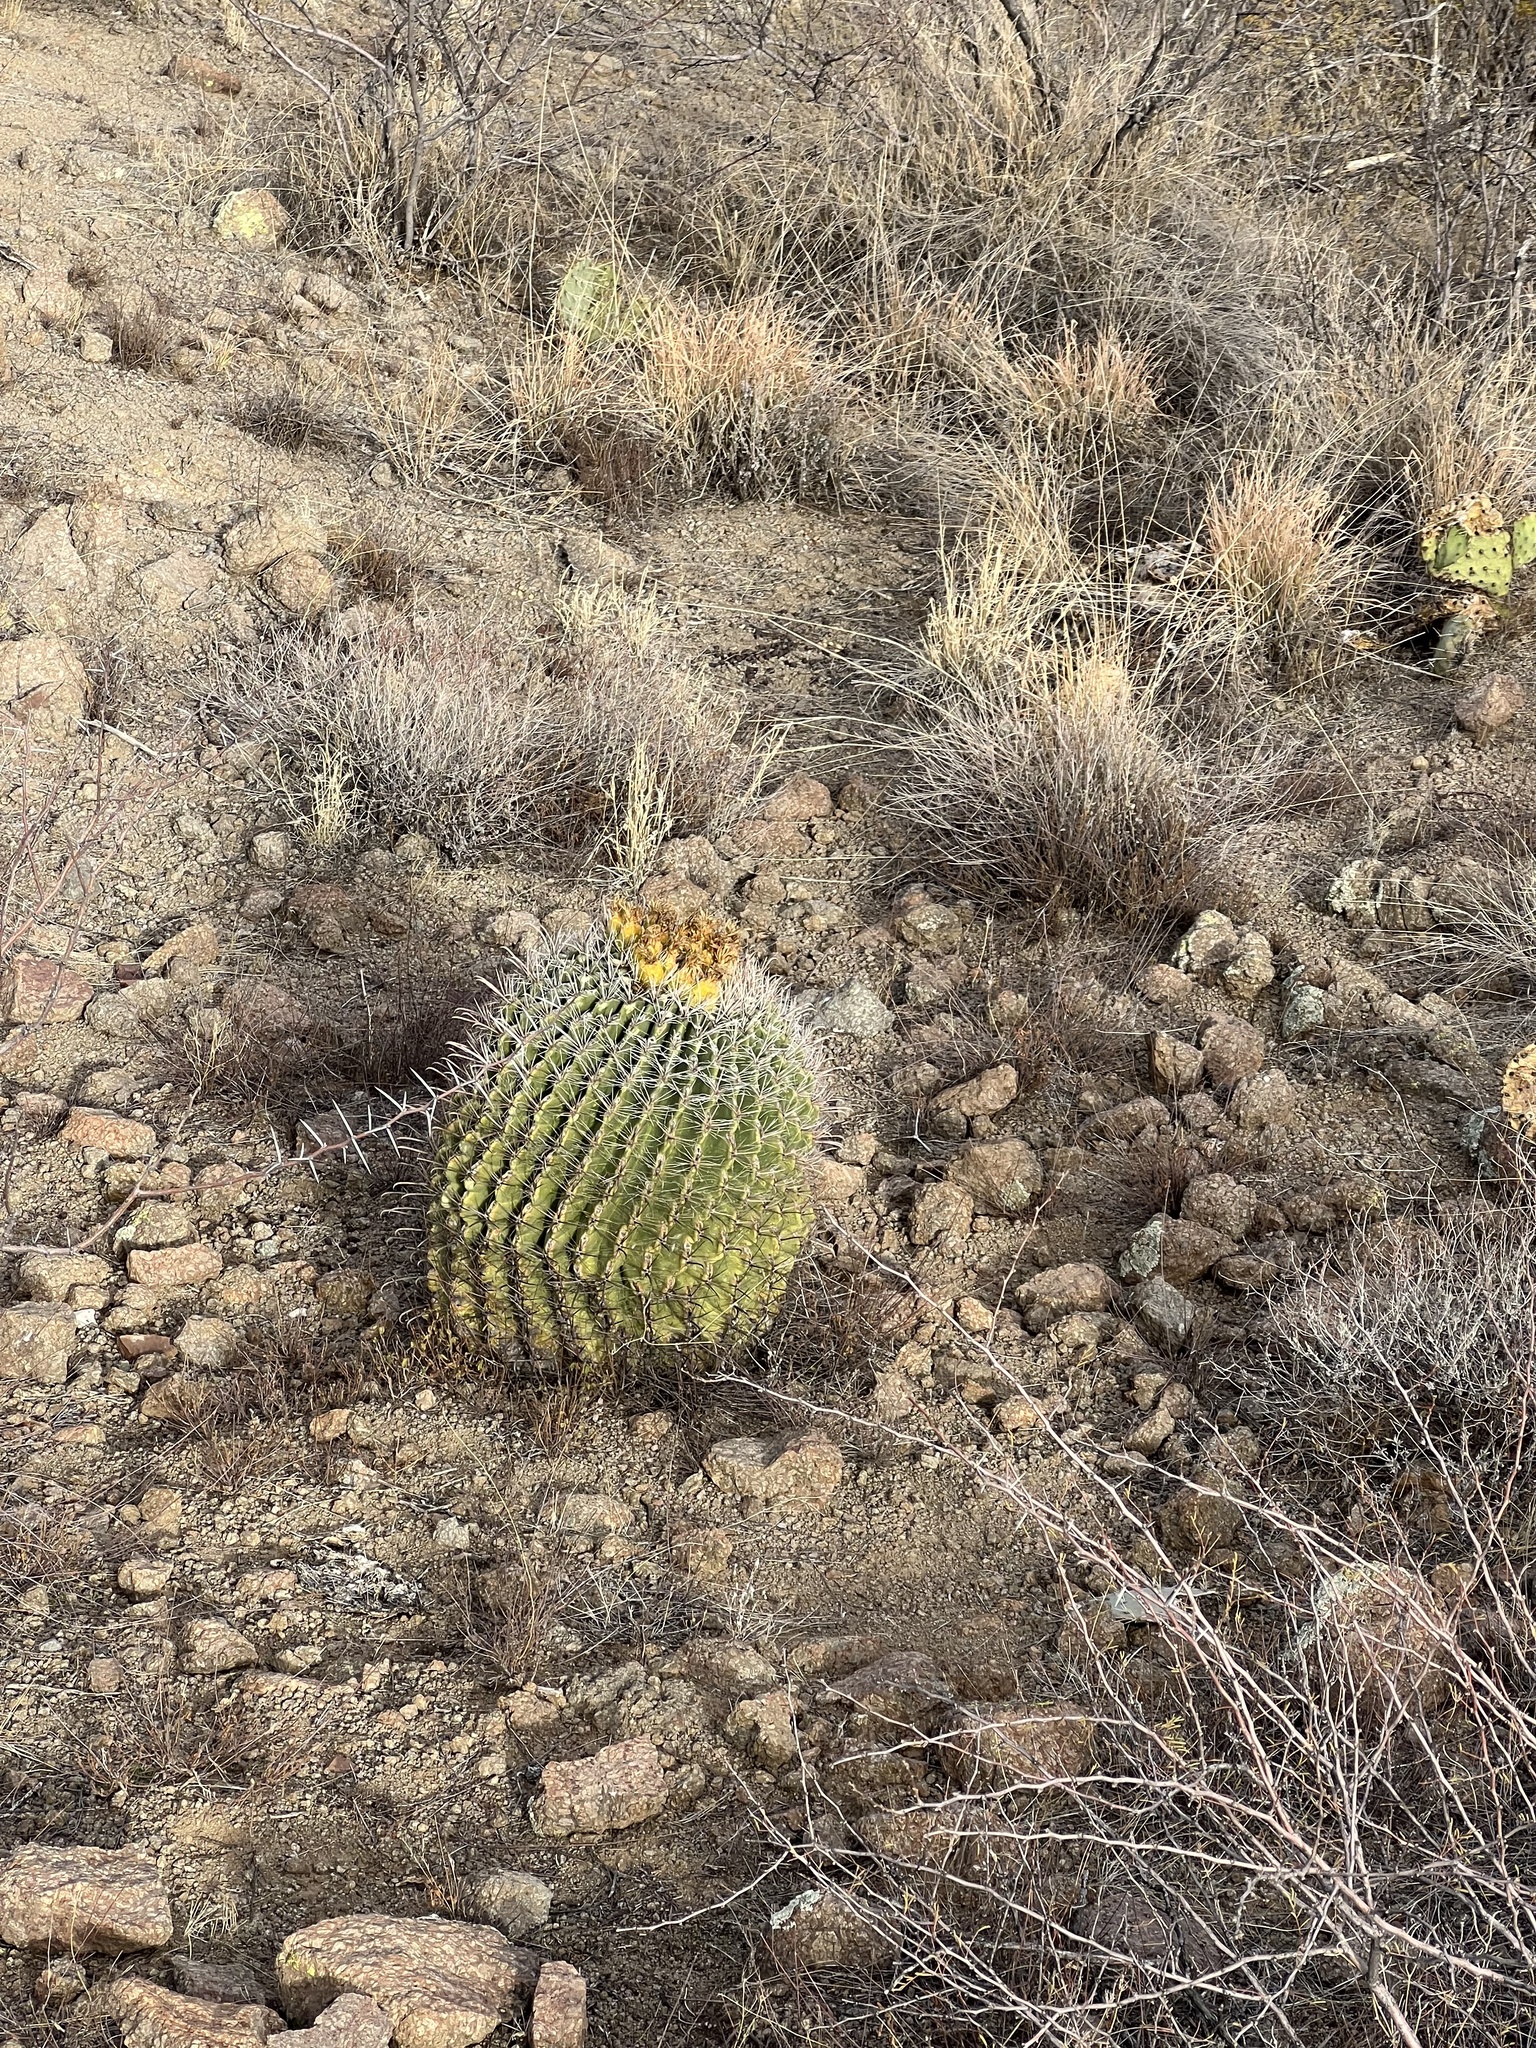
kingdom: Plantae
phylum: Tracheophyta
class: Magnoliopsida
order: Caryophyllales
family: Cactaceae
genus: Ferocactus
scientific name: Ferocactus wislizeni
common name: Candy barrel cactus
